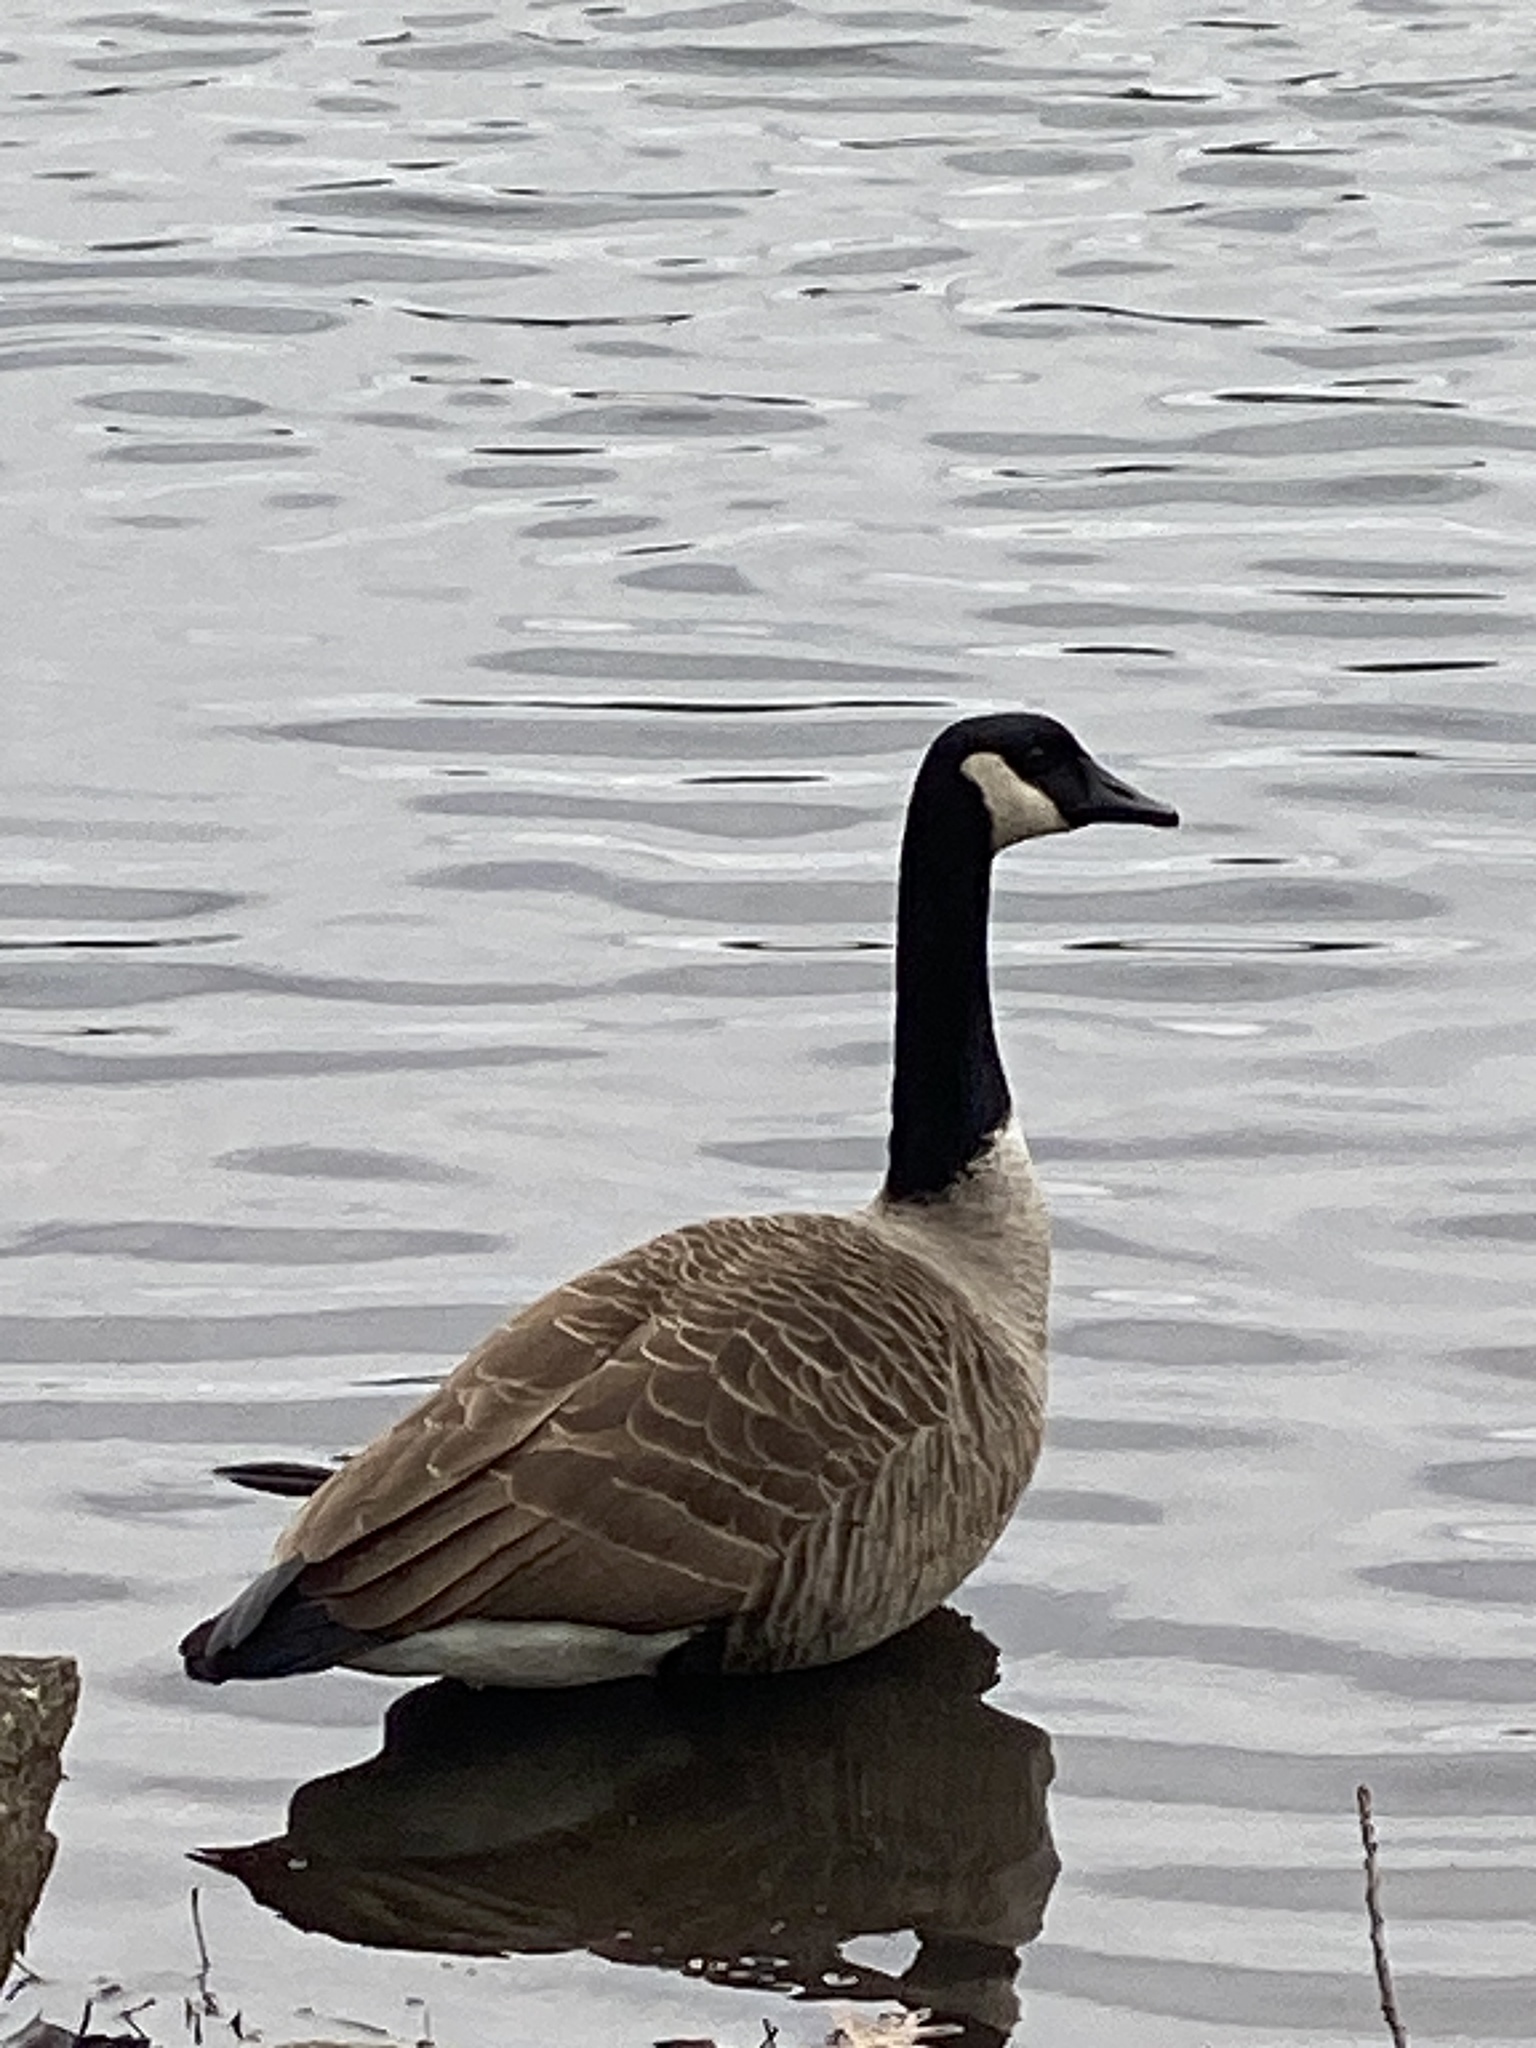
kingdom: Animalia
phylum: Chordata
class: Aves
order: Anseriformes
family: Anatidae
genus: Branta
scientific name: Branta canadensis
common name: Canada goose
